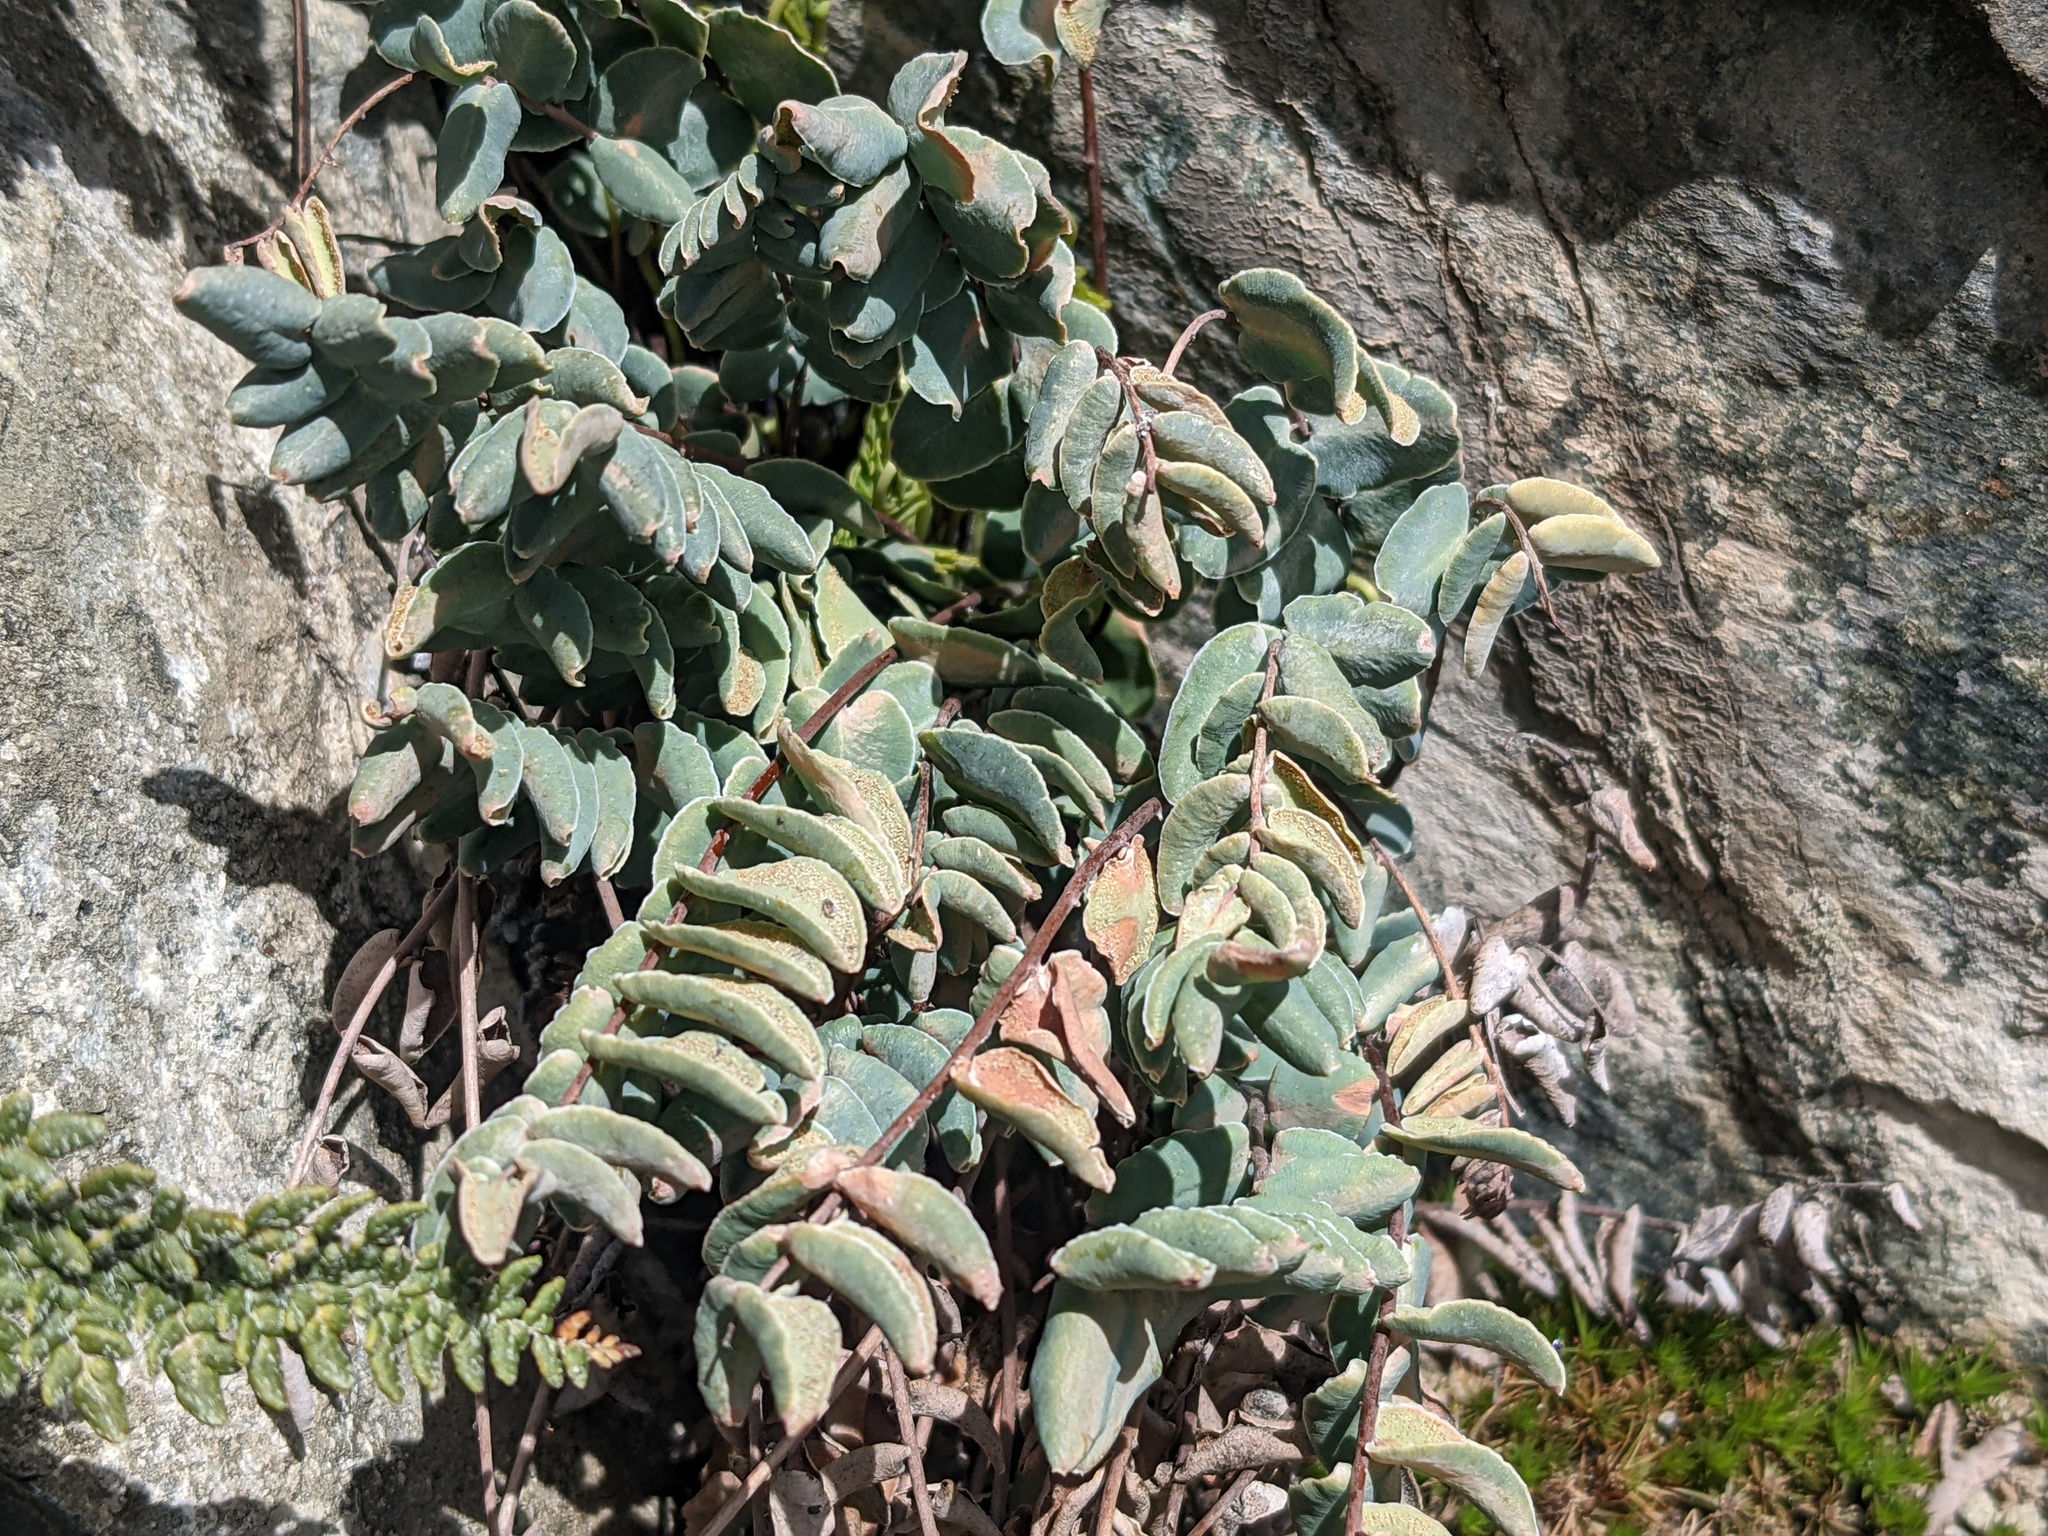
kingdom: Plantae
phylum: Tracheophyta
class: Polypodiopsida
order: Polypodiales
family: Pteridaceae
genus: Pellaea
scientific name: Pellaea bridgesii
